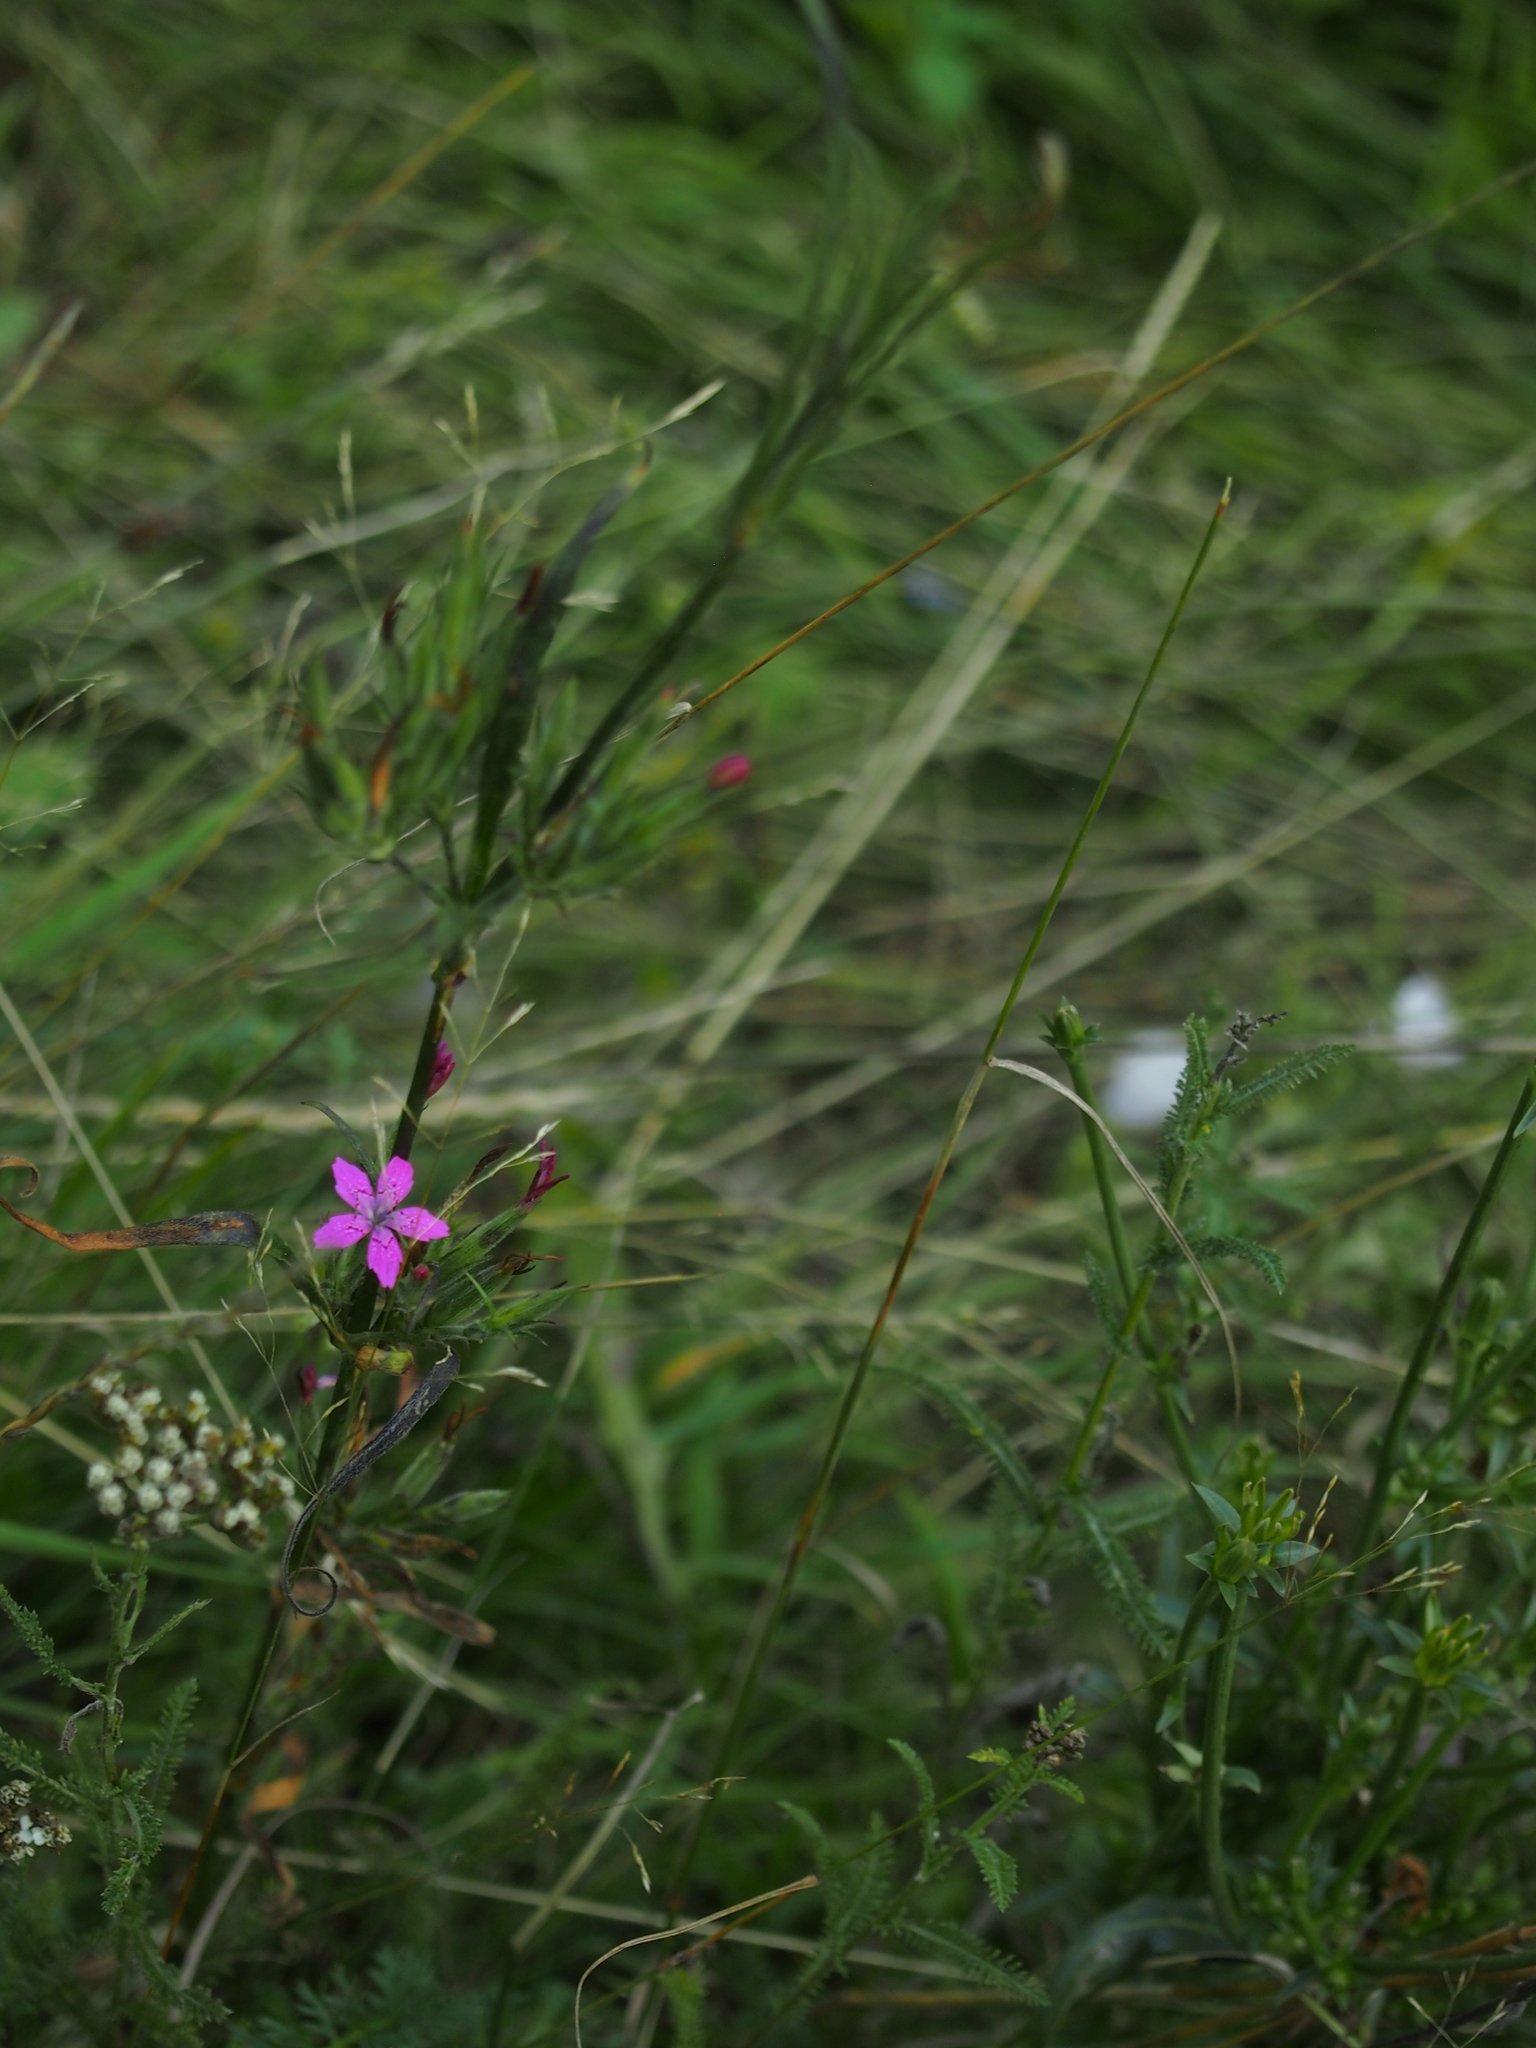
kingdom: Plantae
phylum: Tracheophyta
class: Magnoliopsida
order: Caryophyllales
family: Caryophyllaceae
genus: Dianthus
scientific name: Dianthus armeria
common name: Deptford pink
